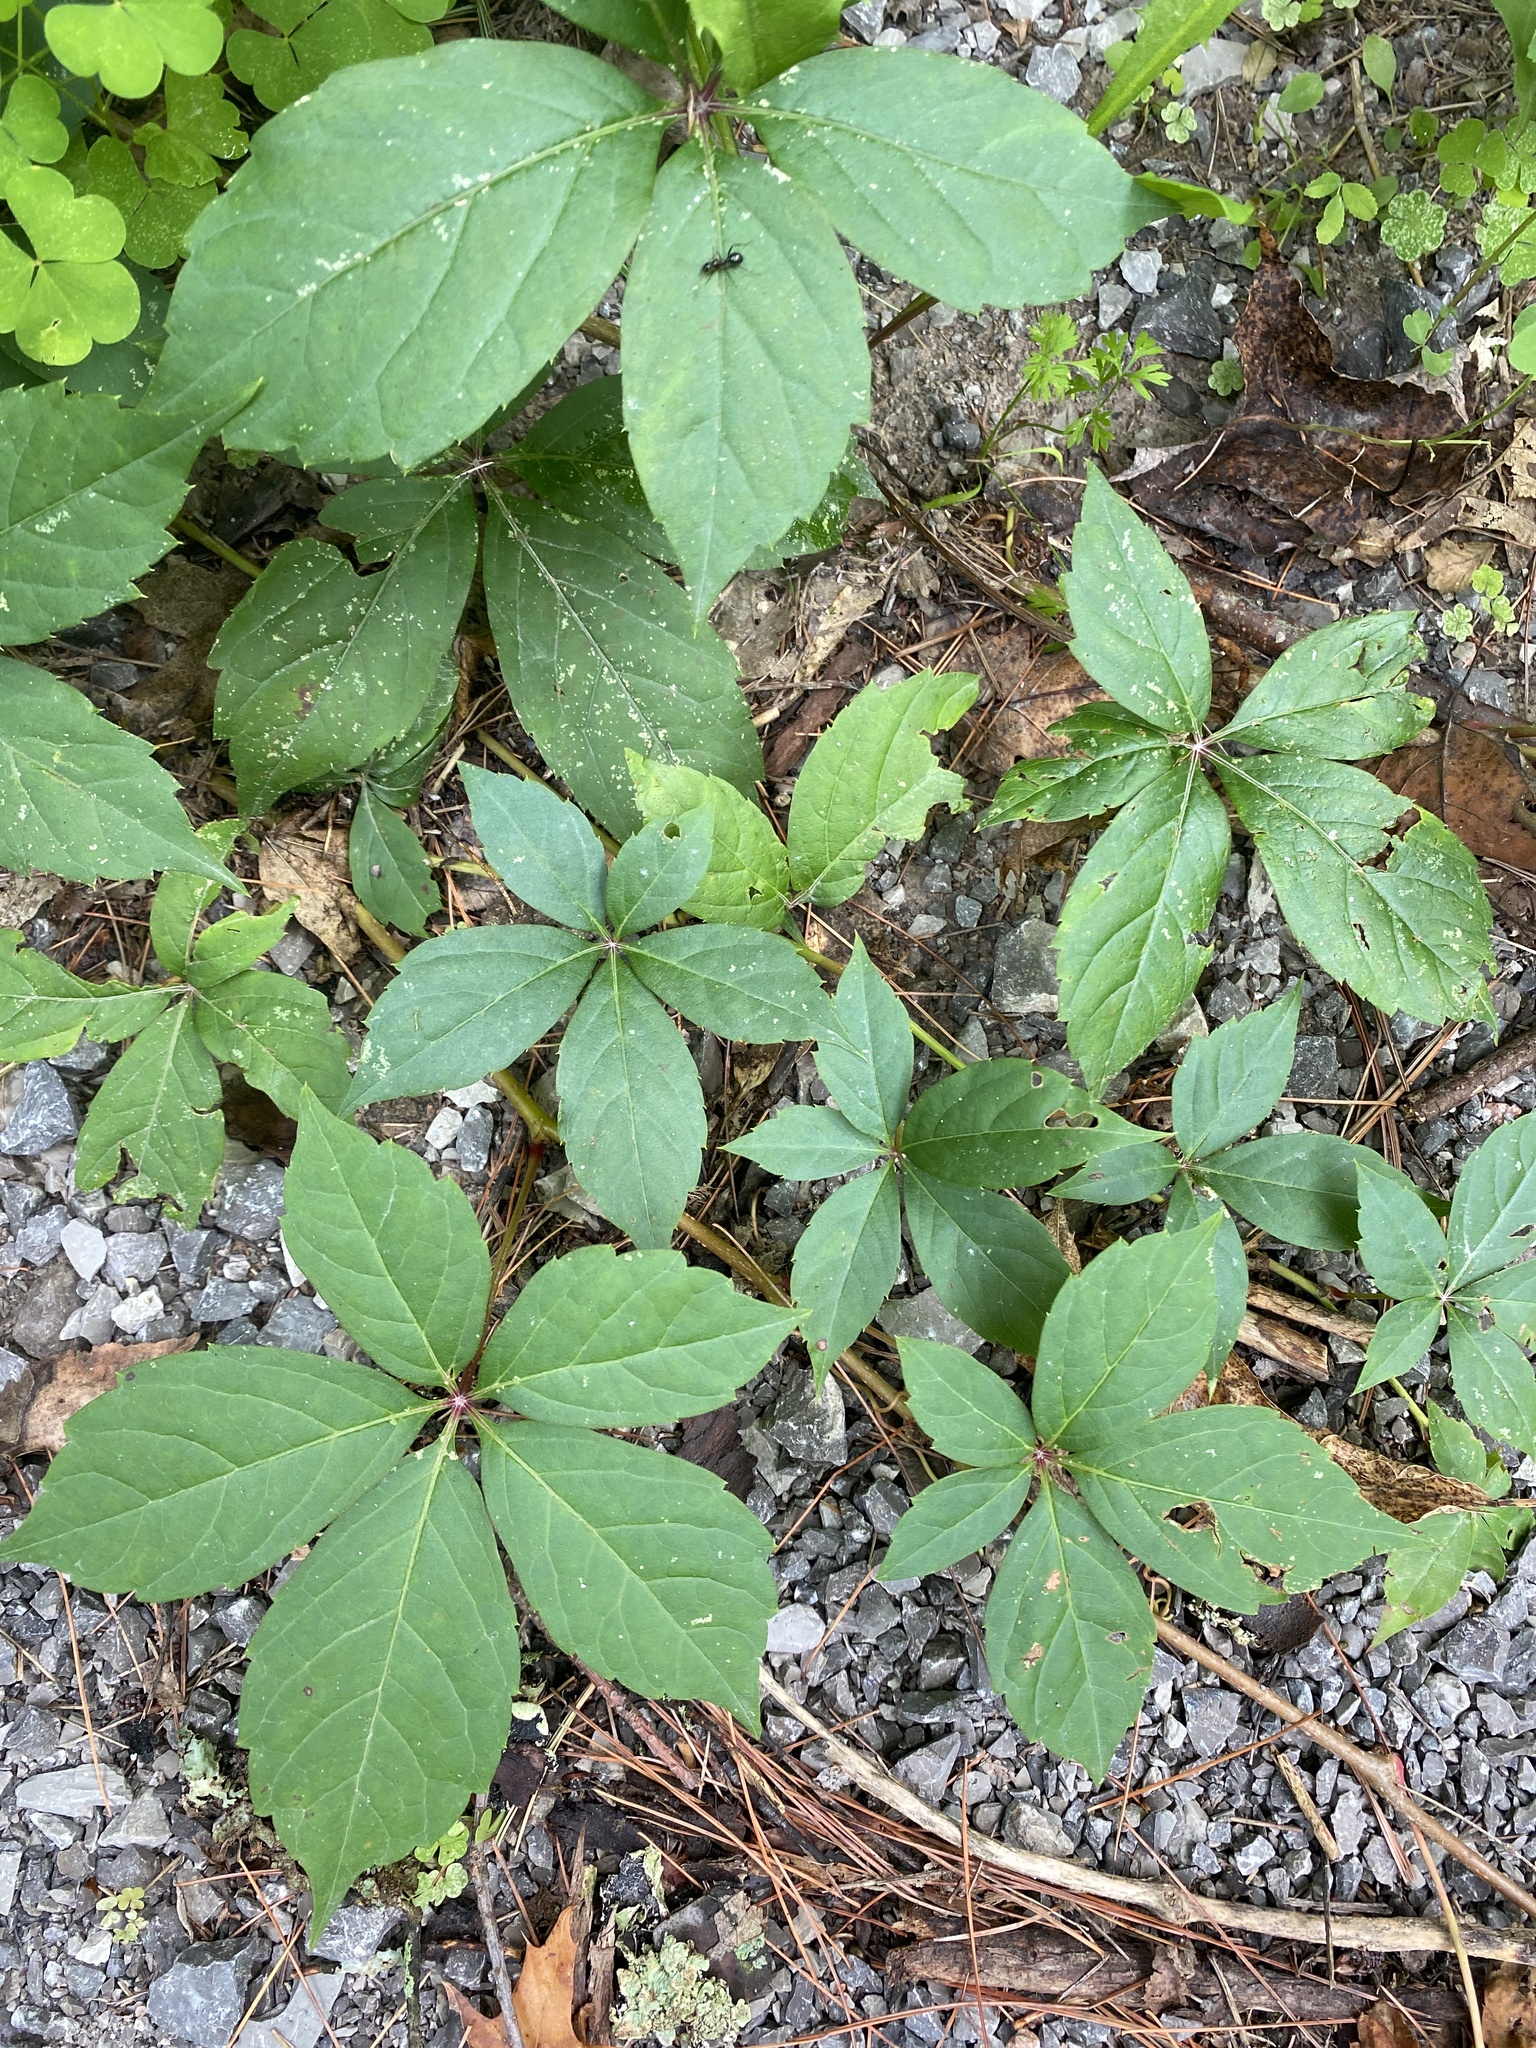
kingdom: Plantae
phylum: Tracheophyta
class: Magnoliopsida
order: Vitales
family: Vitaceae
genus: Parthenocissus
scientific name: Parthenocissus inserta
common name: False virginia-creeper
